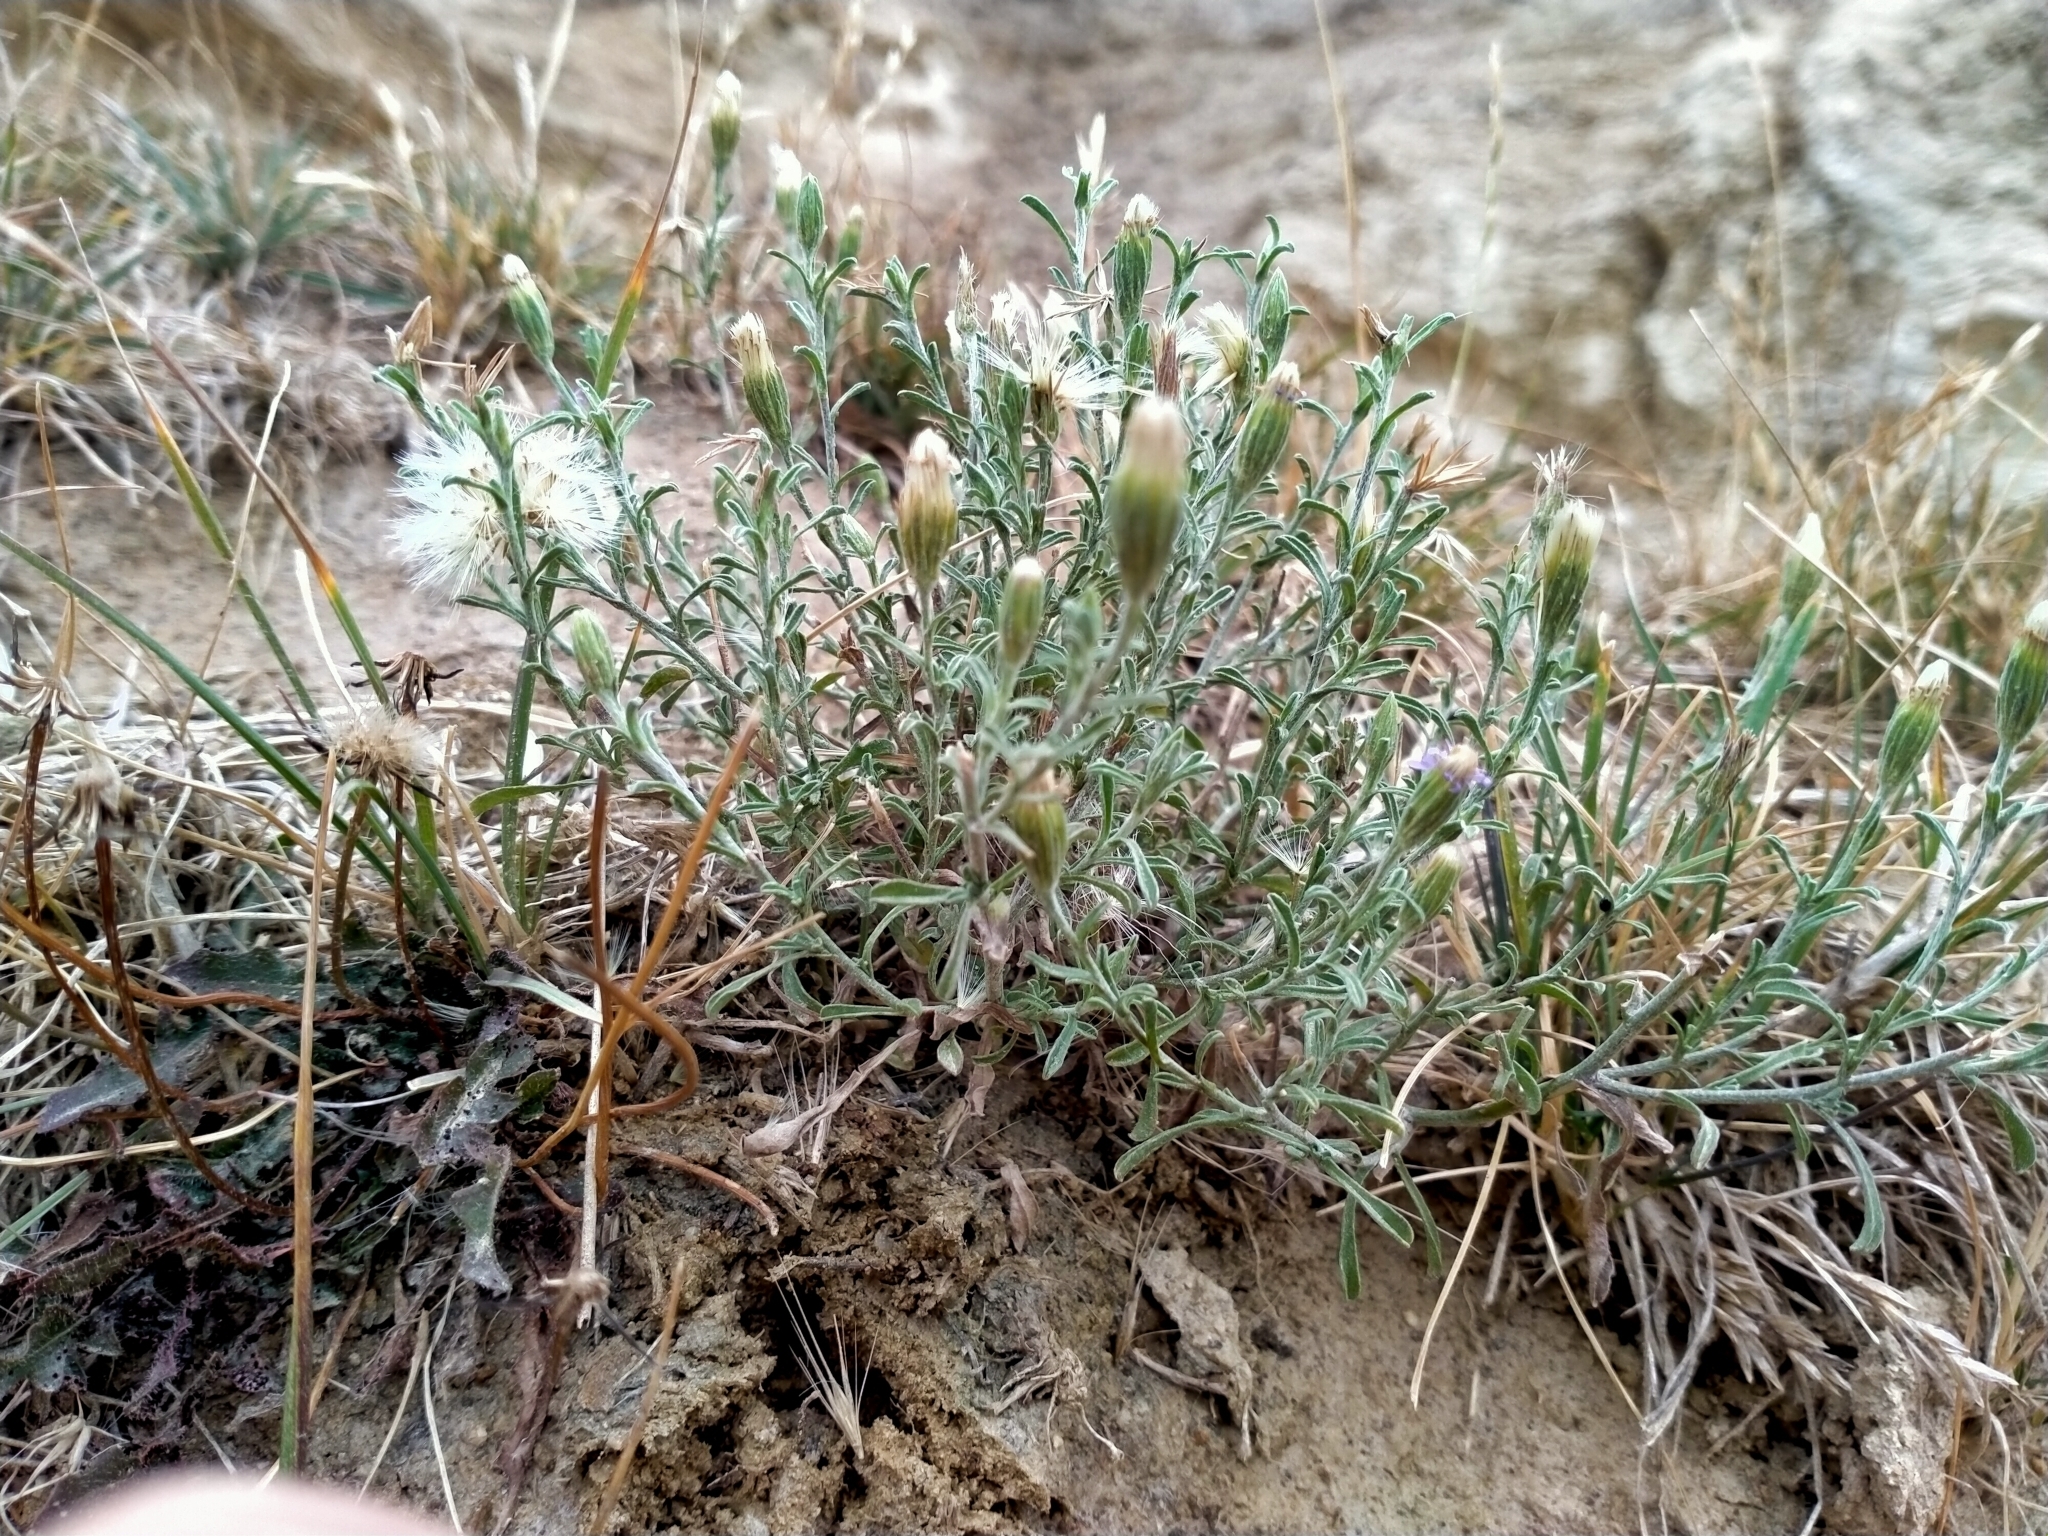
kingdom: Plantae
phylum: Tracheophyta
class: Magnoliopsida
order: Asterales
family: Asteraceae
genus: Vittadinia
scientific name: Vittadinia gracilis
